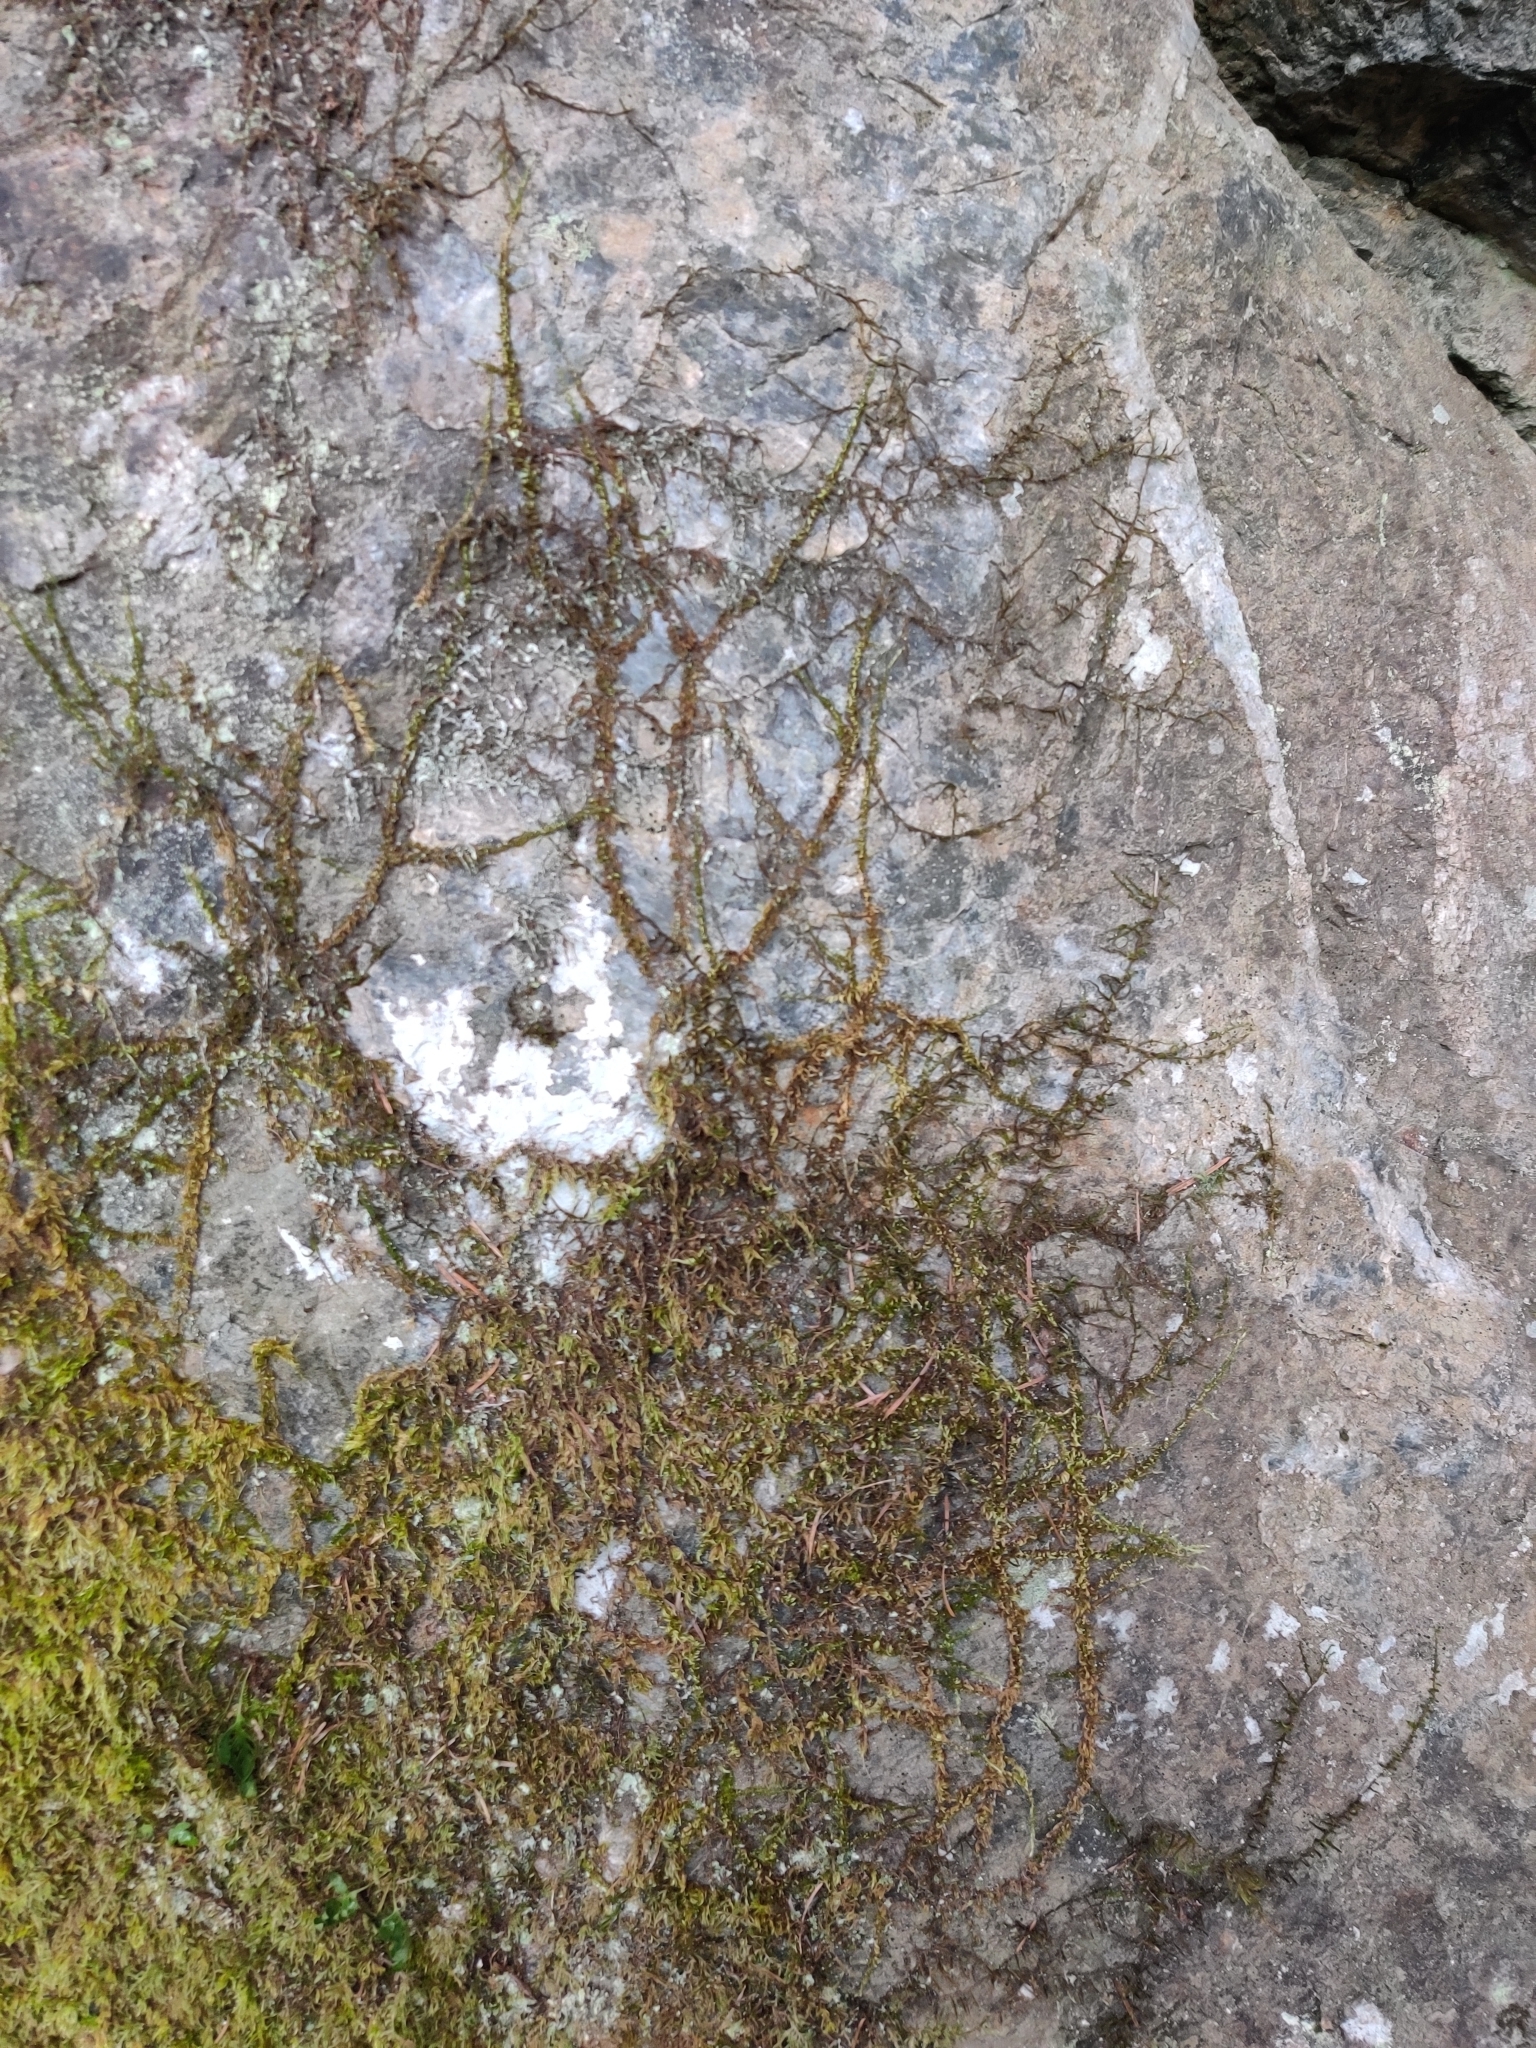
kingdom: Plantae
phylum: Bryophyta
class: Bryopsida
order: Hypnales
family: Brachytheciaceae
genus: Homalothecium
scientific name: Homalothecium nuttallii
